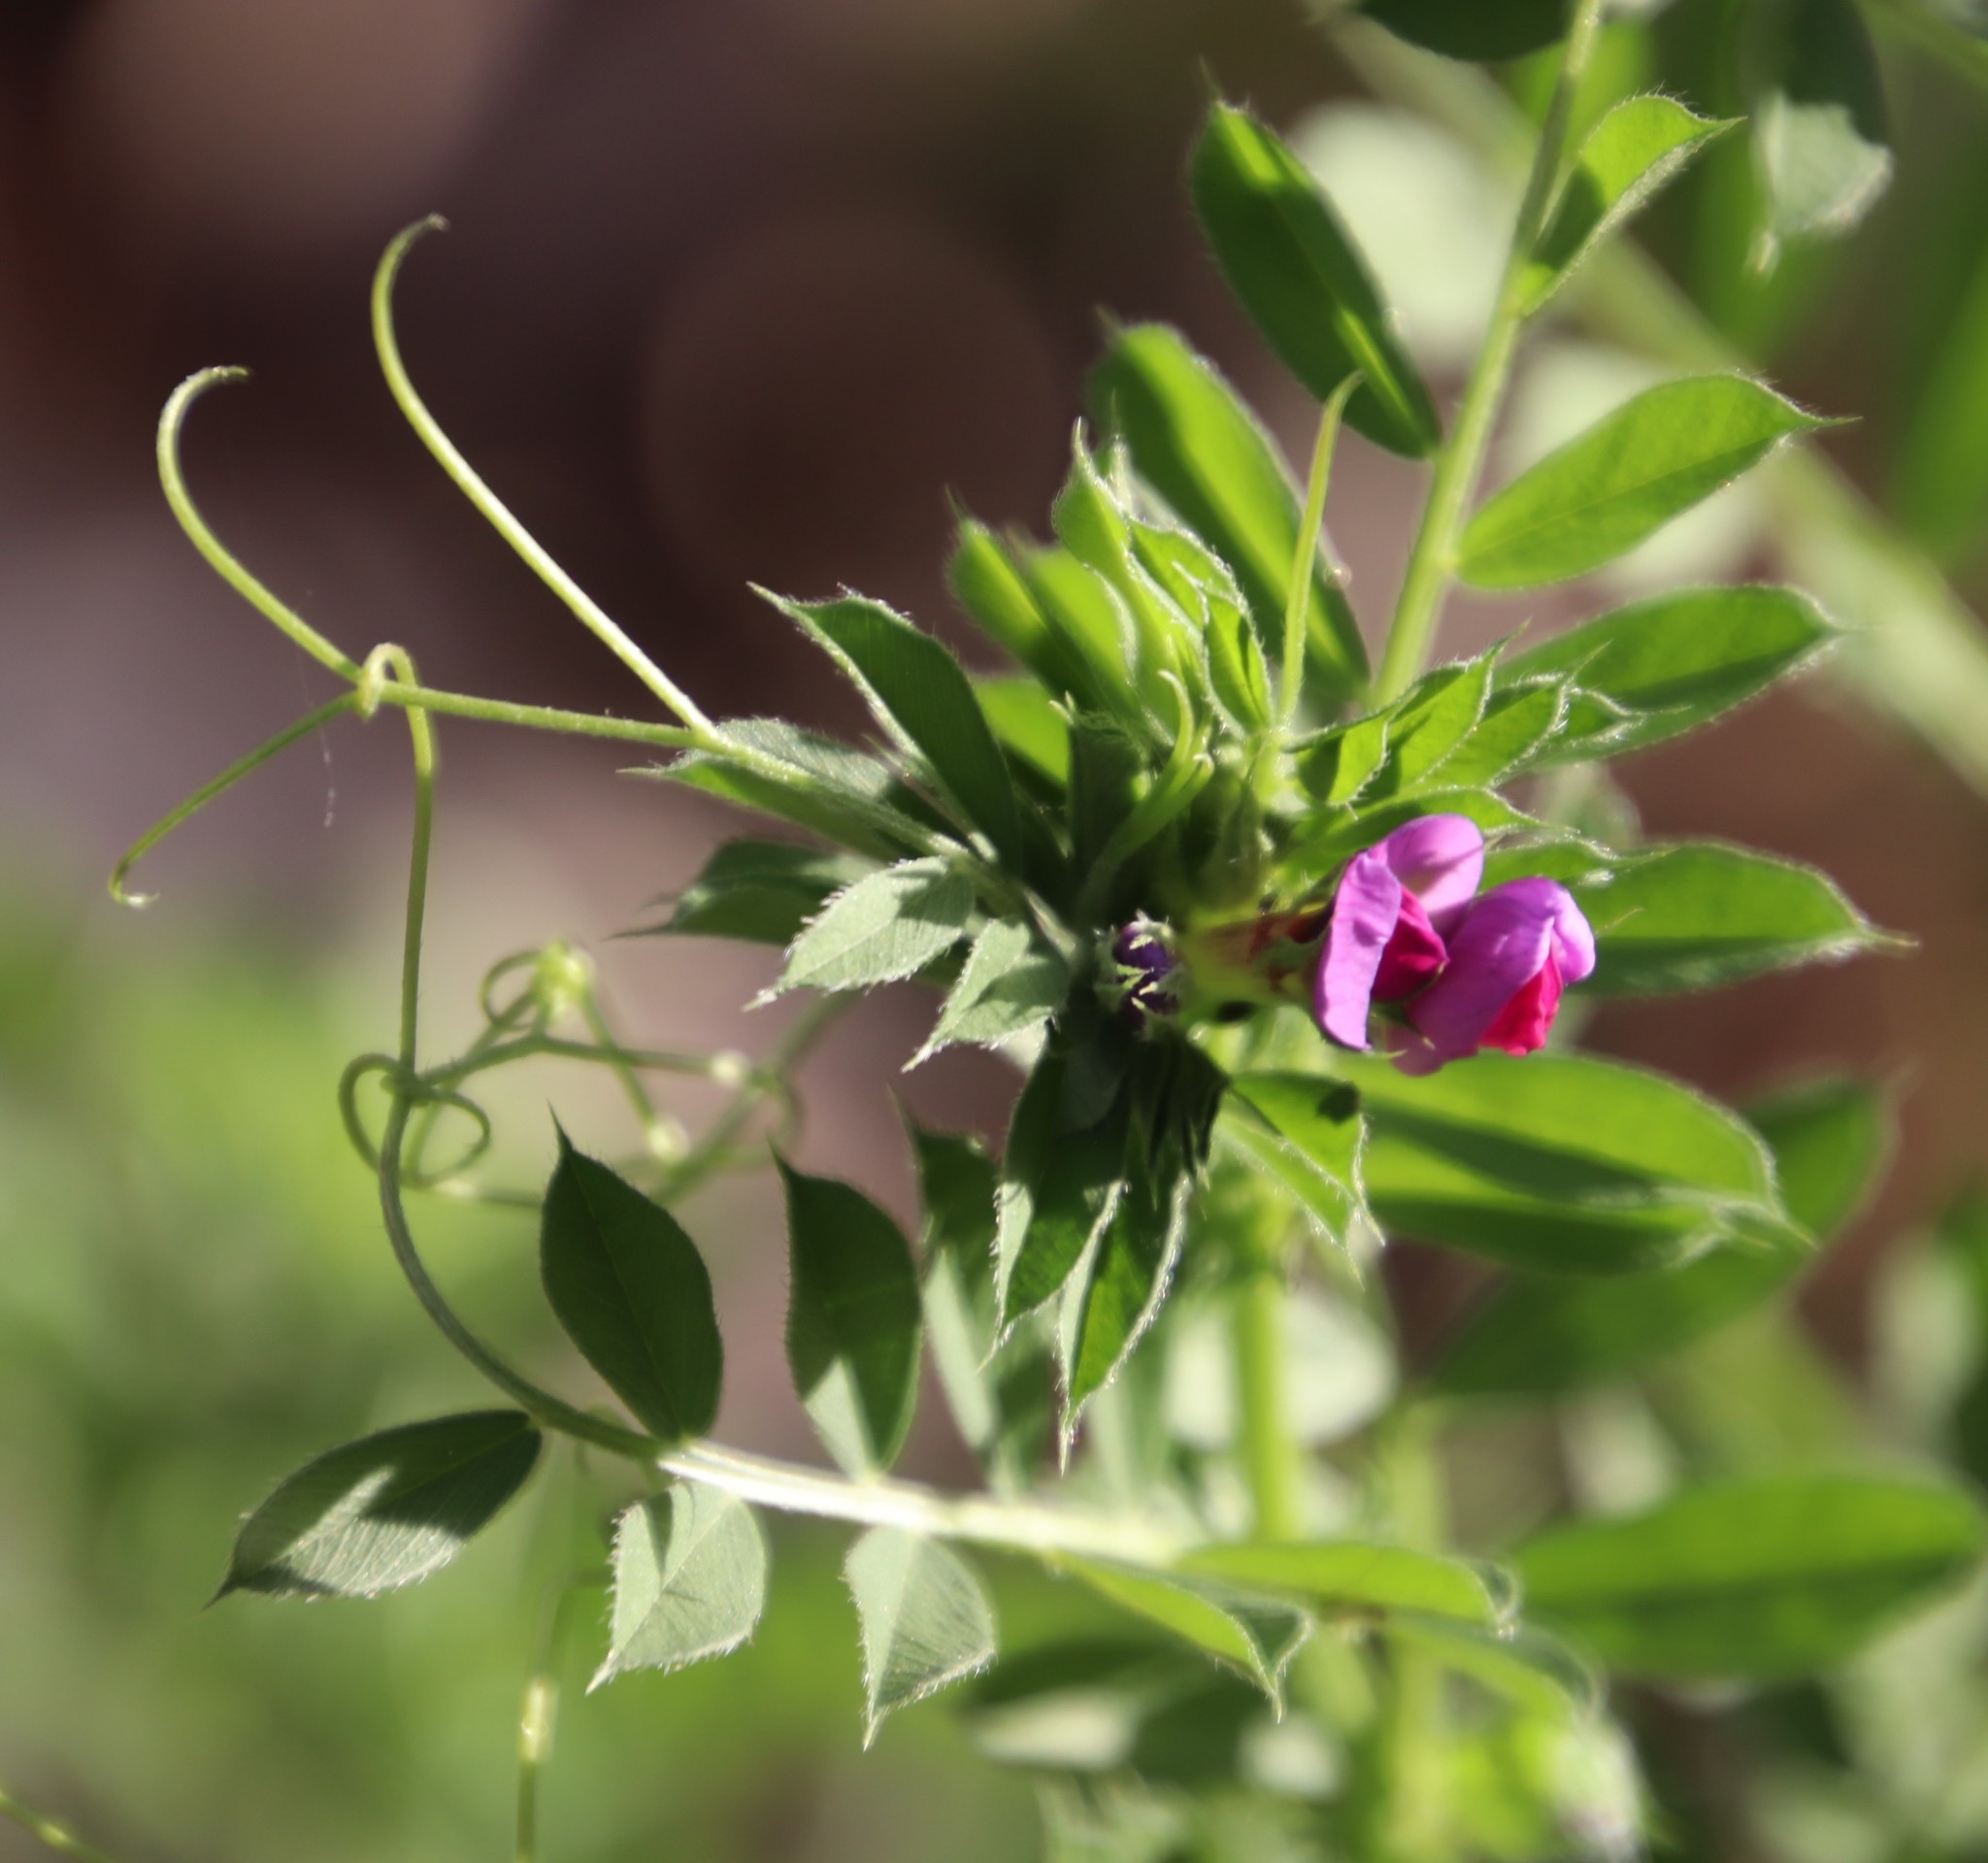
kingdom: Plantae
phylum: Tracheophyta
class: Magnoliopsida
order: Fabales
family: Fabaceae
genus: Vicia
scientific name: Vicia sativa
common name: Garden vetch
